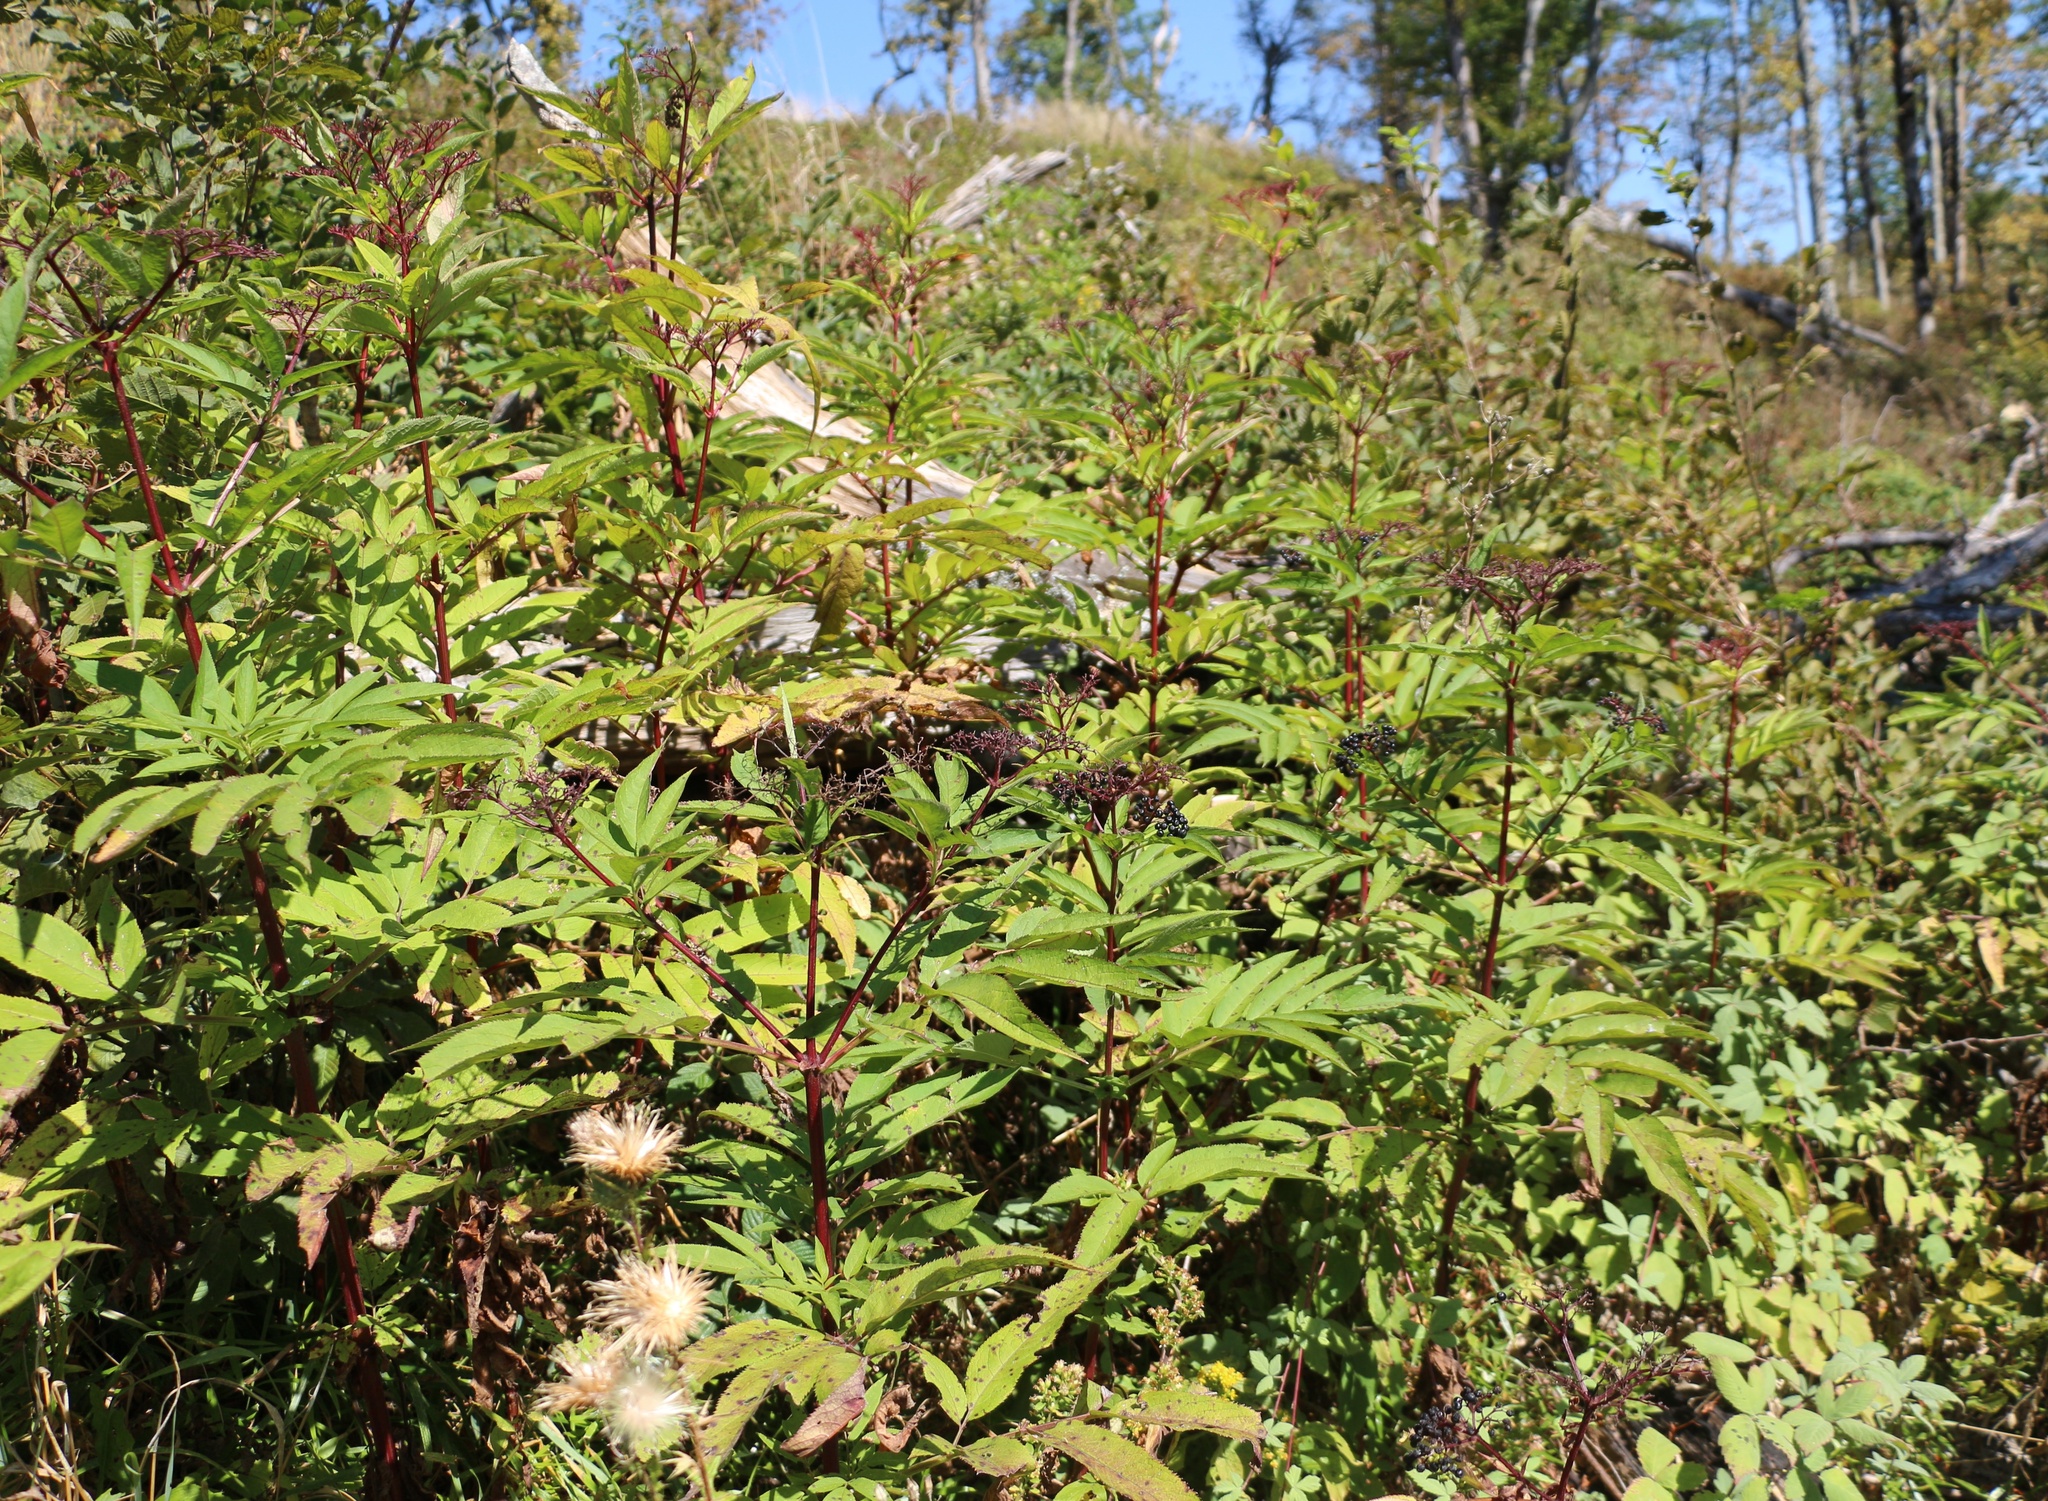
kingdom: Plantae
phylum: Tracheophyta
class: Magnoliopsida
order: Dipsacales
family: Viburnaceae
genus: Sambucus
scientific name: Sambucus ebulus
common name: Dwarf elder
